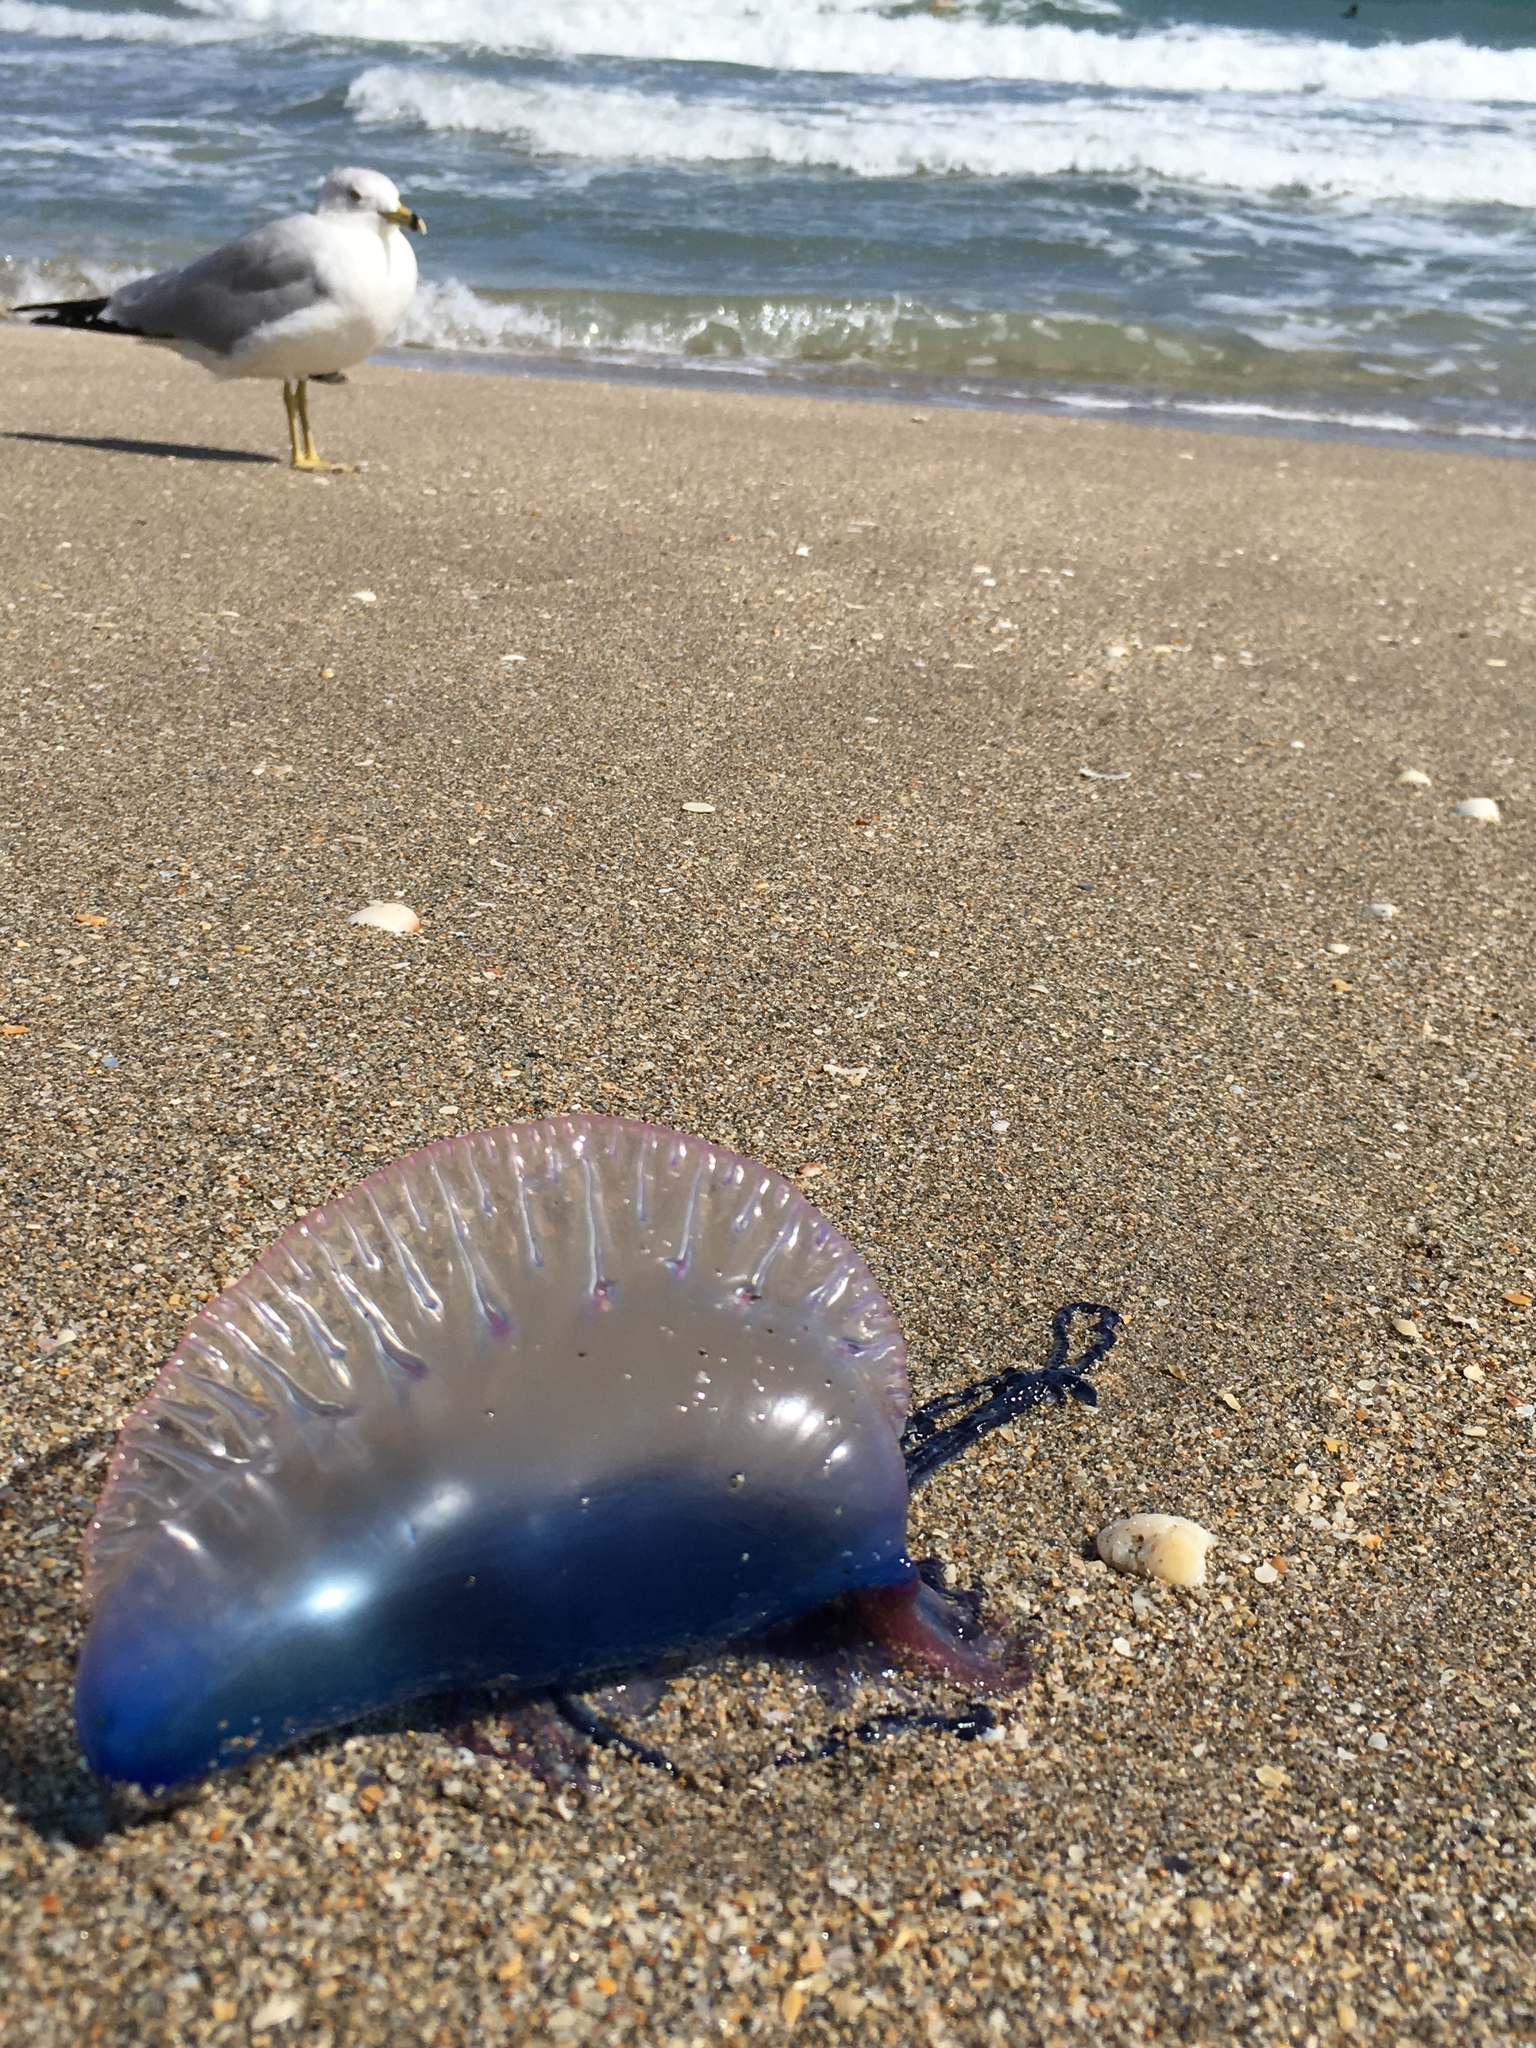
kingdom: Animalia
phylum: Cnidaria
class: Hydrozoa
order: Siphonophorae
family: Physaliidae
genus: Physalia
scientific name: Physalia physalis
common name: Portuguese man-of-war
